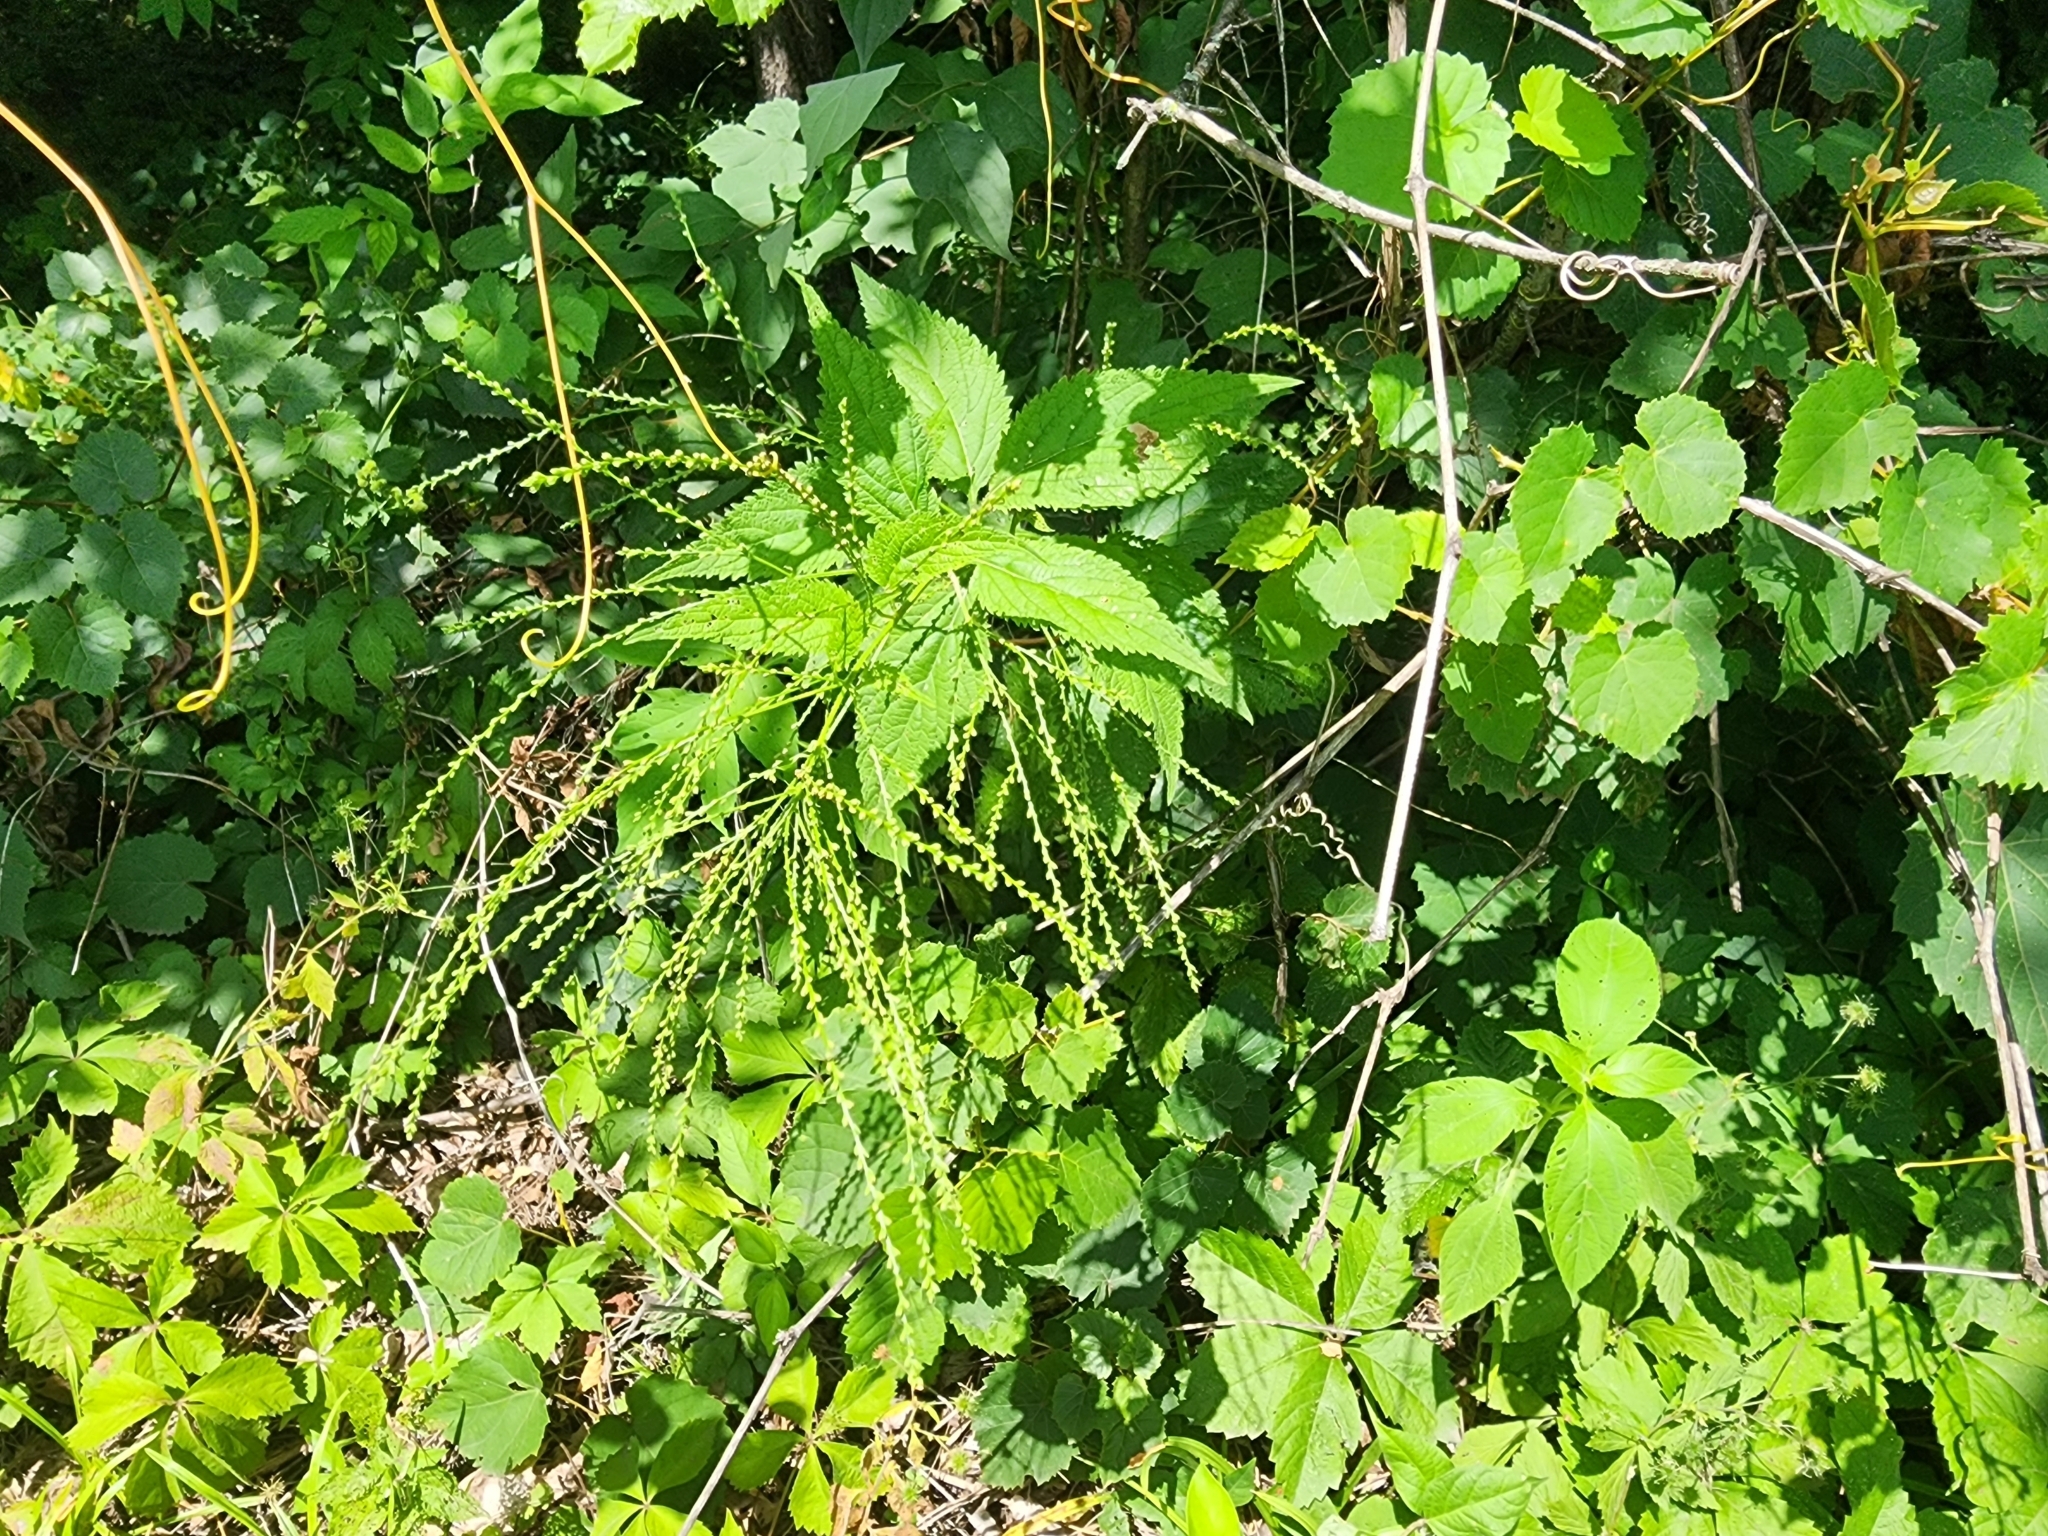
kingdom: Plantae
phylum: Tracheophyta
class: Magnoliopsida
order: Lamiales
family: Verbenaceae
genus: Verbena
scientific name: Verbena urticifolia
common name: Nettle-leaved vervain
